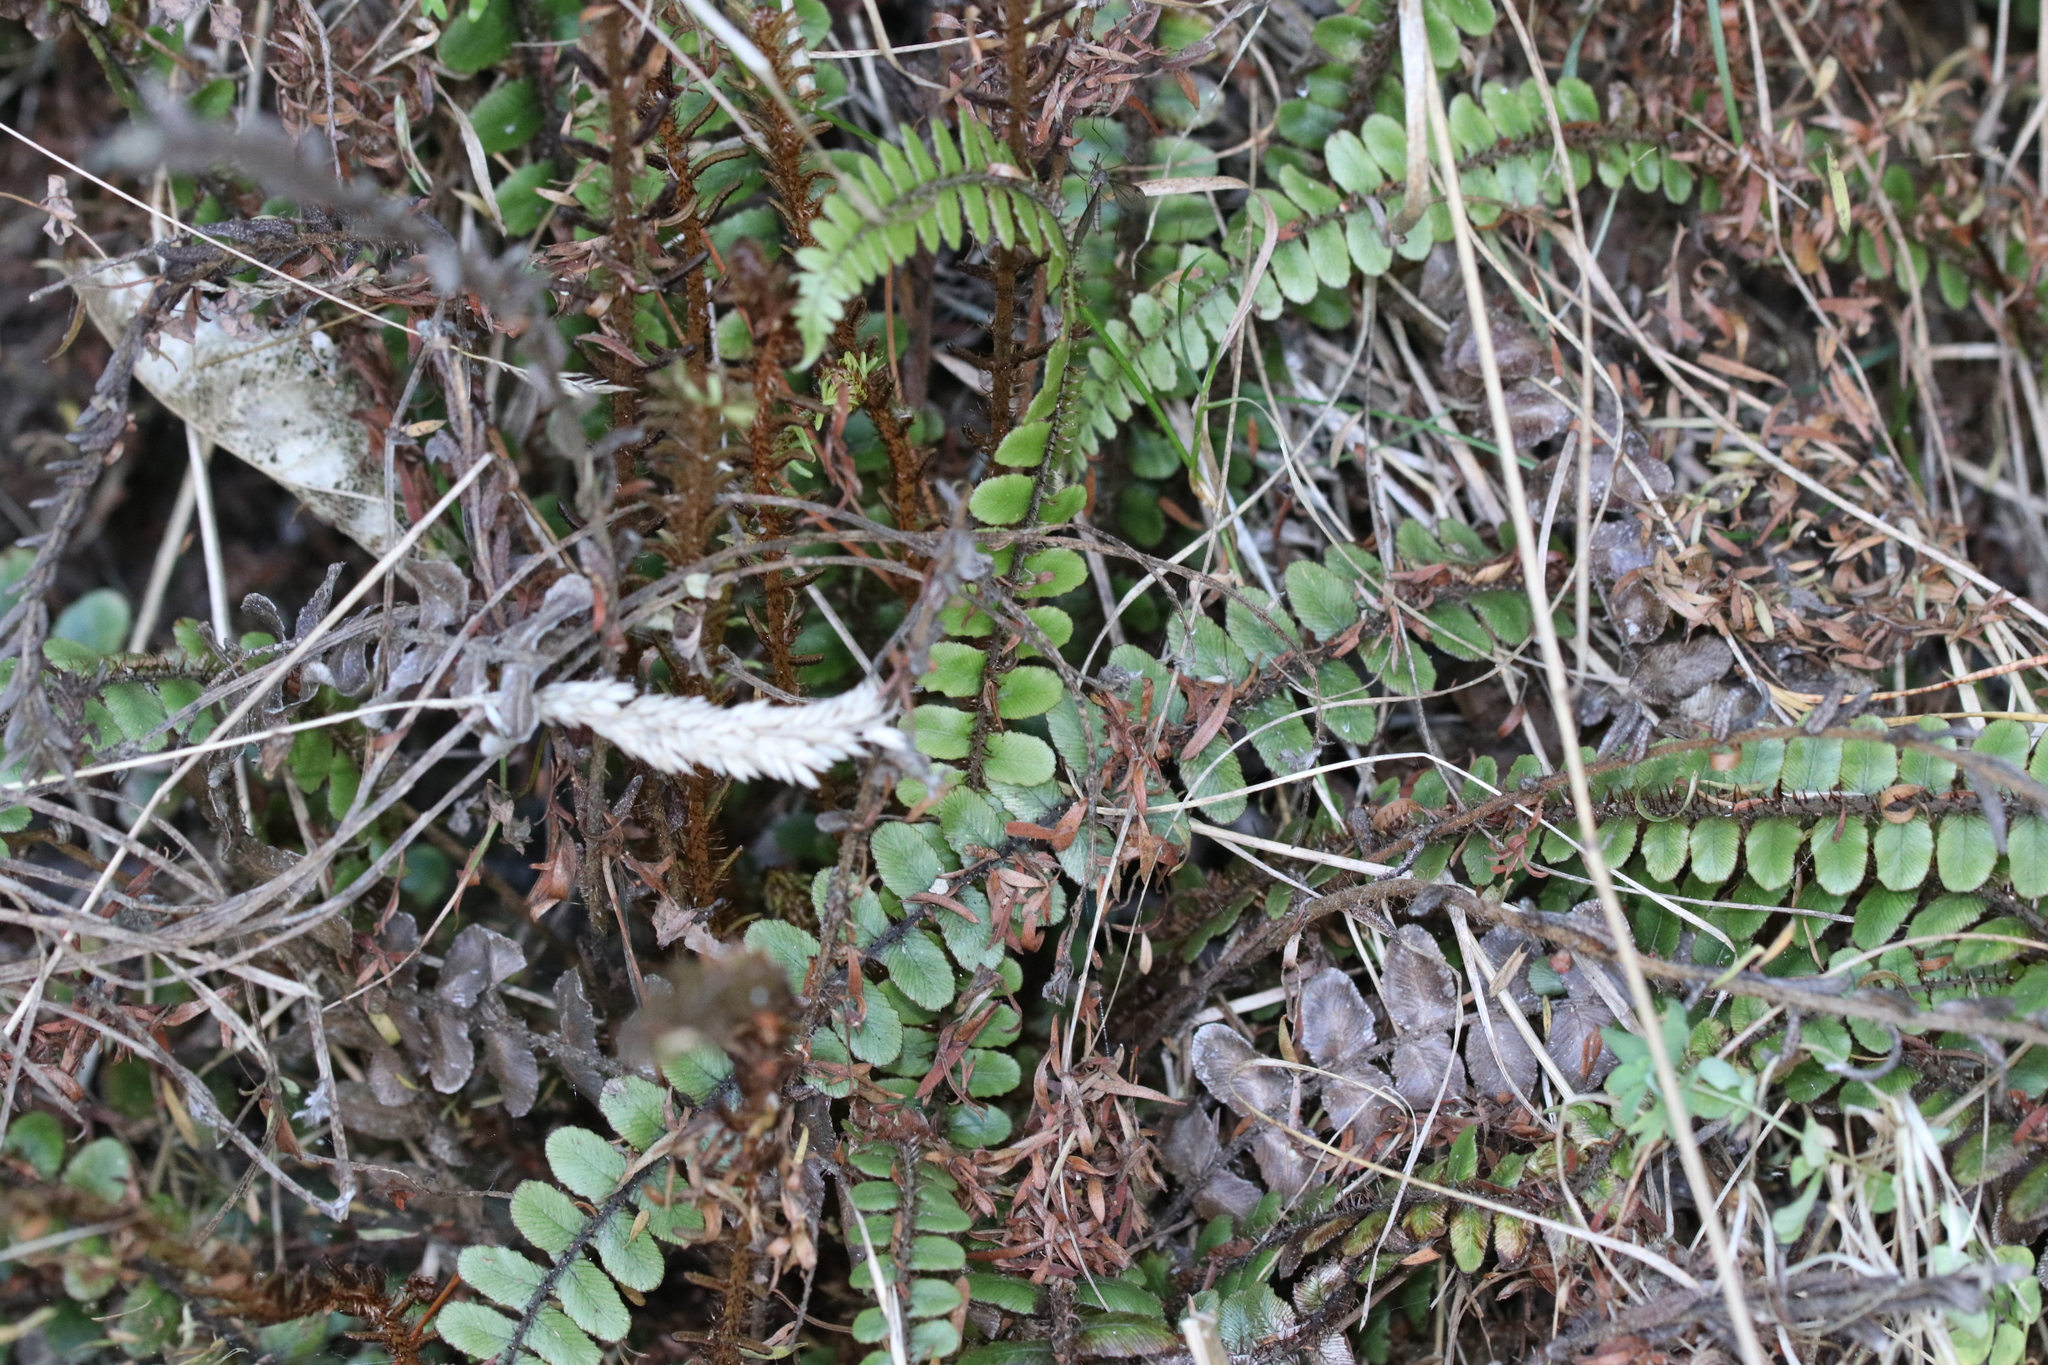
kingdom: Plantae
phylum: Tracheophyta
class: Polypodiopsida
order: Polypodiales
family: Blechnaceae
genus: Cranfillia
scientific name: Cranfillia fluviatilis
